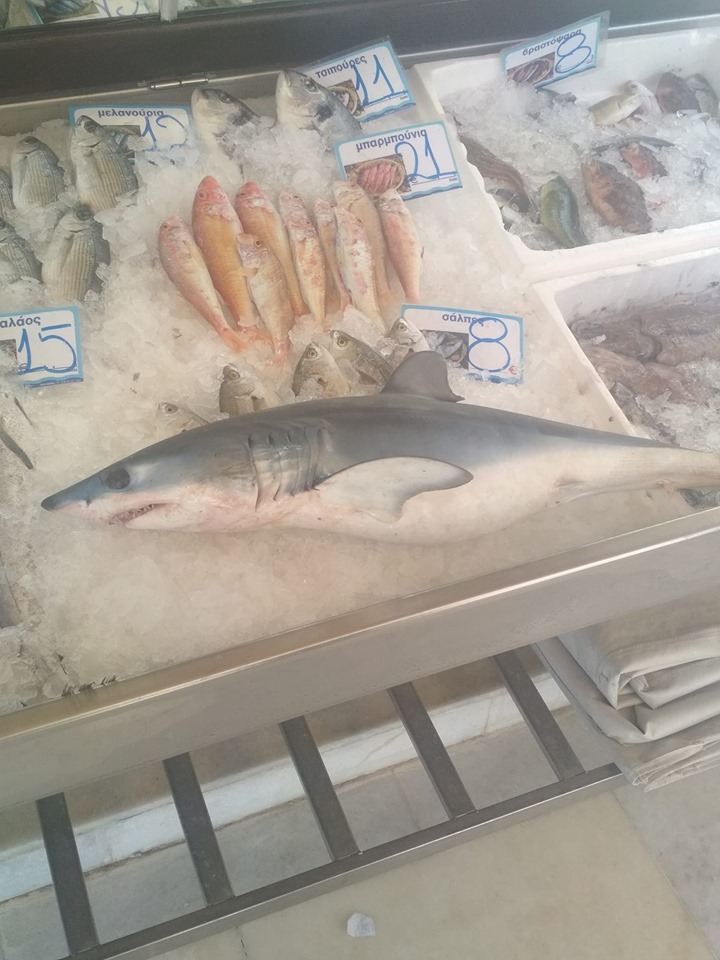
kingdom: Animalia
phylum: Chordata
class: Elasmobranchii
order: Lamniformes
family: Lamnidae
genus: Isurus
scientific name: Isurus oxyrinchus
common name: Shortfin mako
